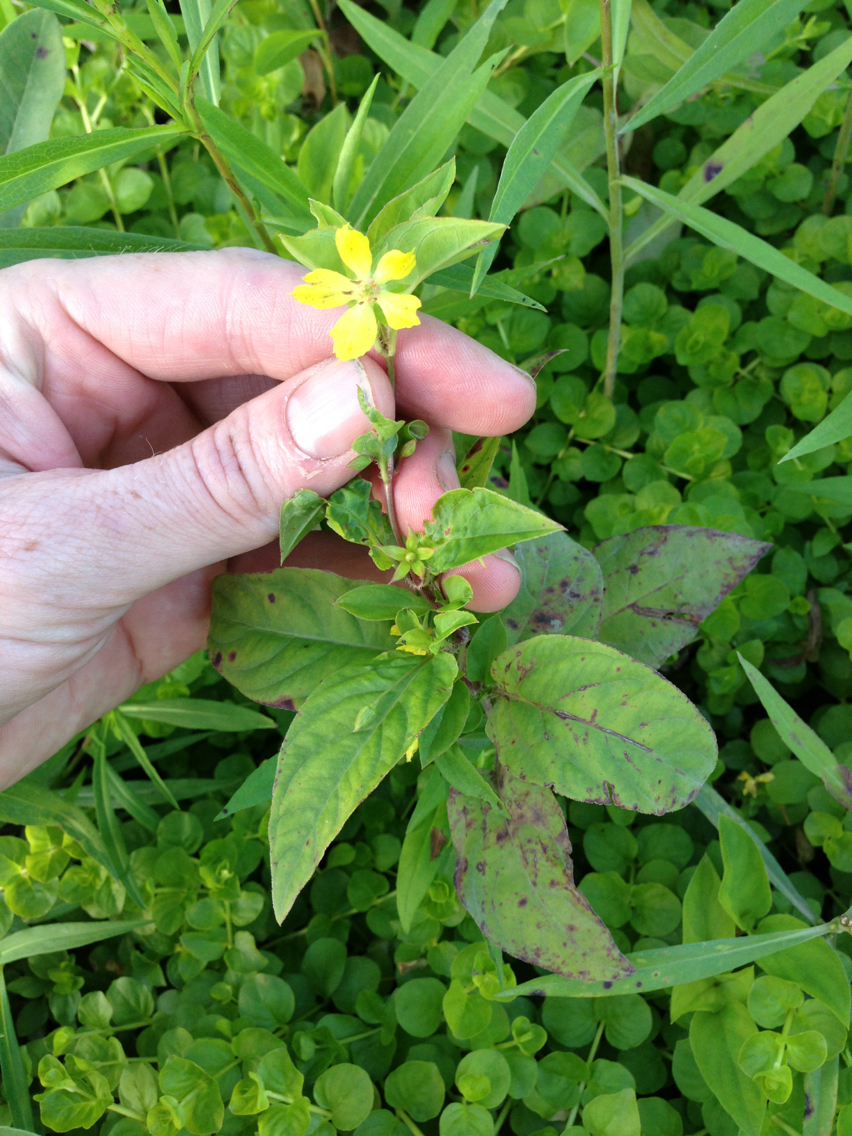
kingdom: Plantae
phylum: Tracheophyta
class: Magnoliopsida
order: Ericales
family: Primulaceae
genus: Lysimachia
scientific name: Lysimachia ciliata
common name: Fringed loosestrife
